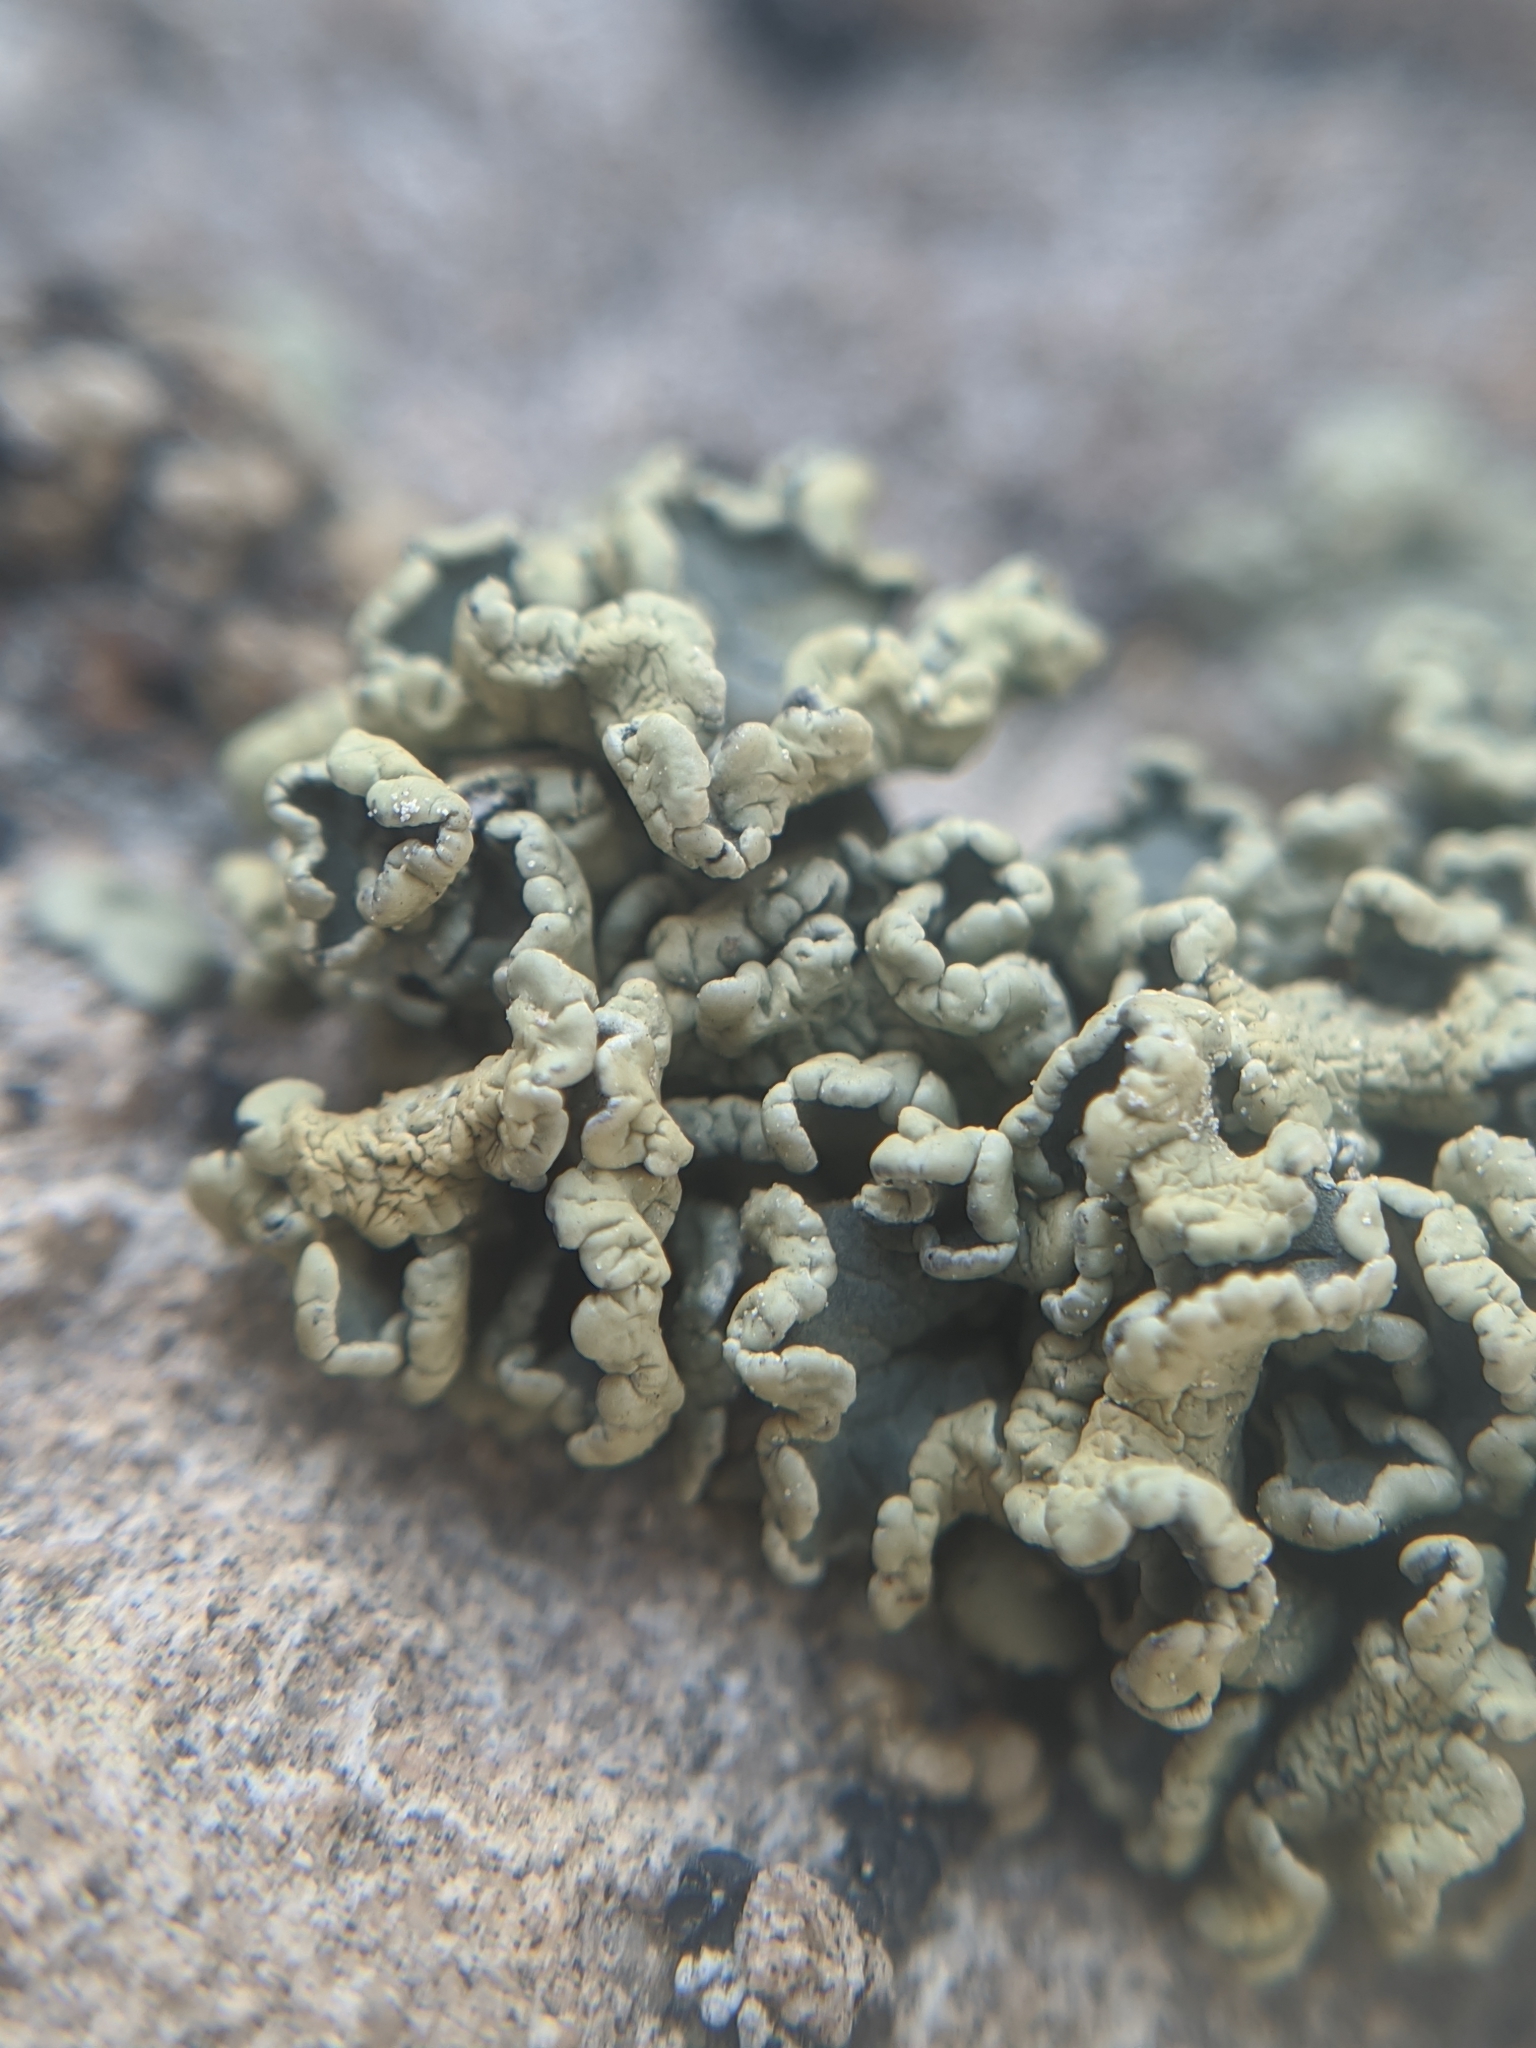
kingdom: Fungi
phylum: Ascomycota
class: Lecanoromycetes
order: Lecanorales
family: Lecanoraceae
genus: Rhizoplaca
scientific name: Rhizoplaca melanophthalma
